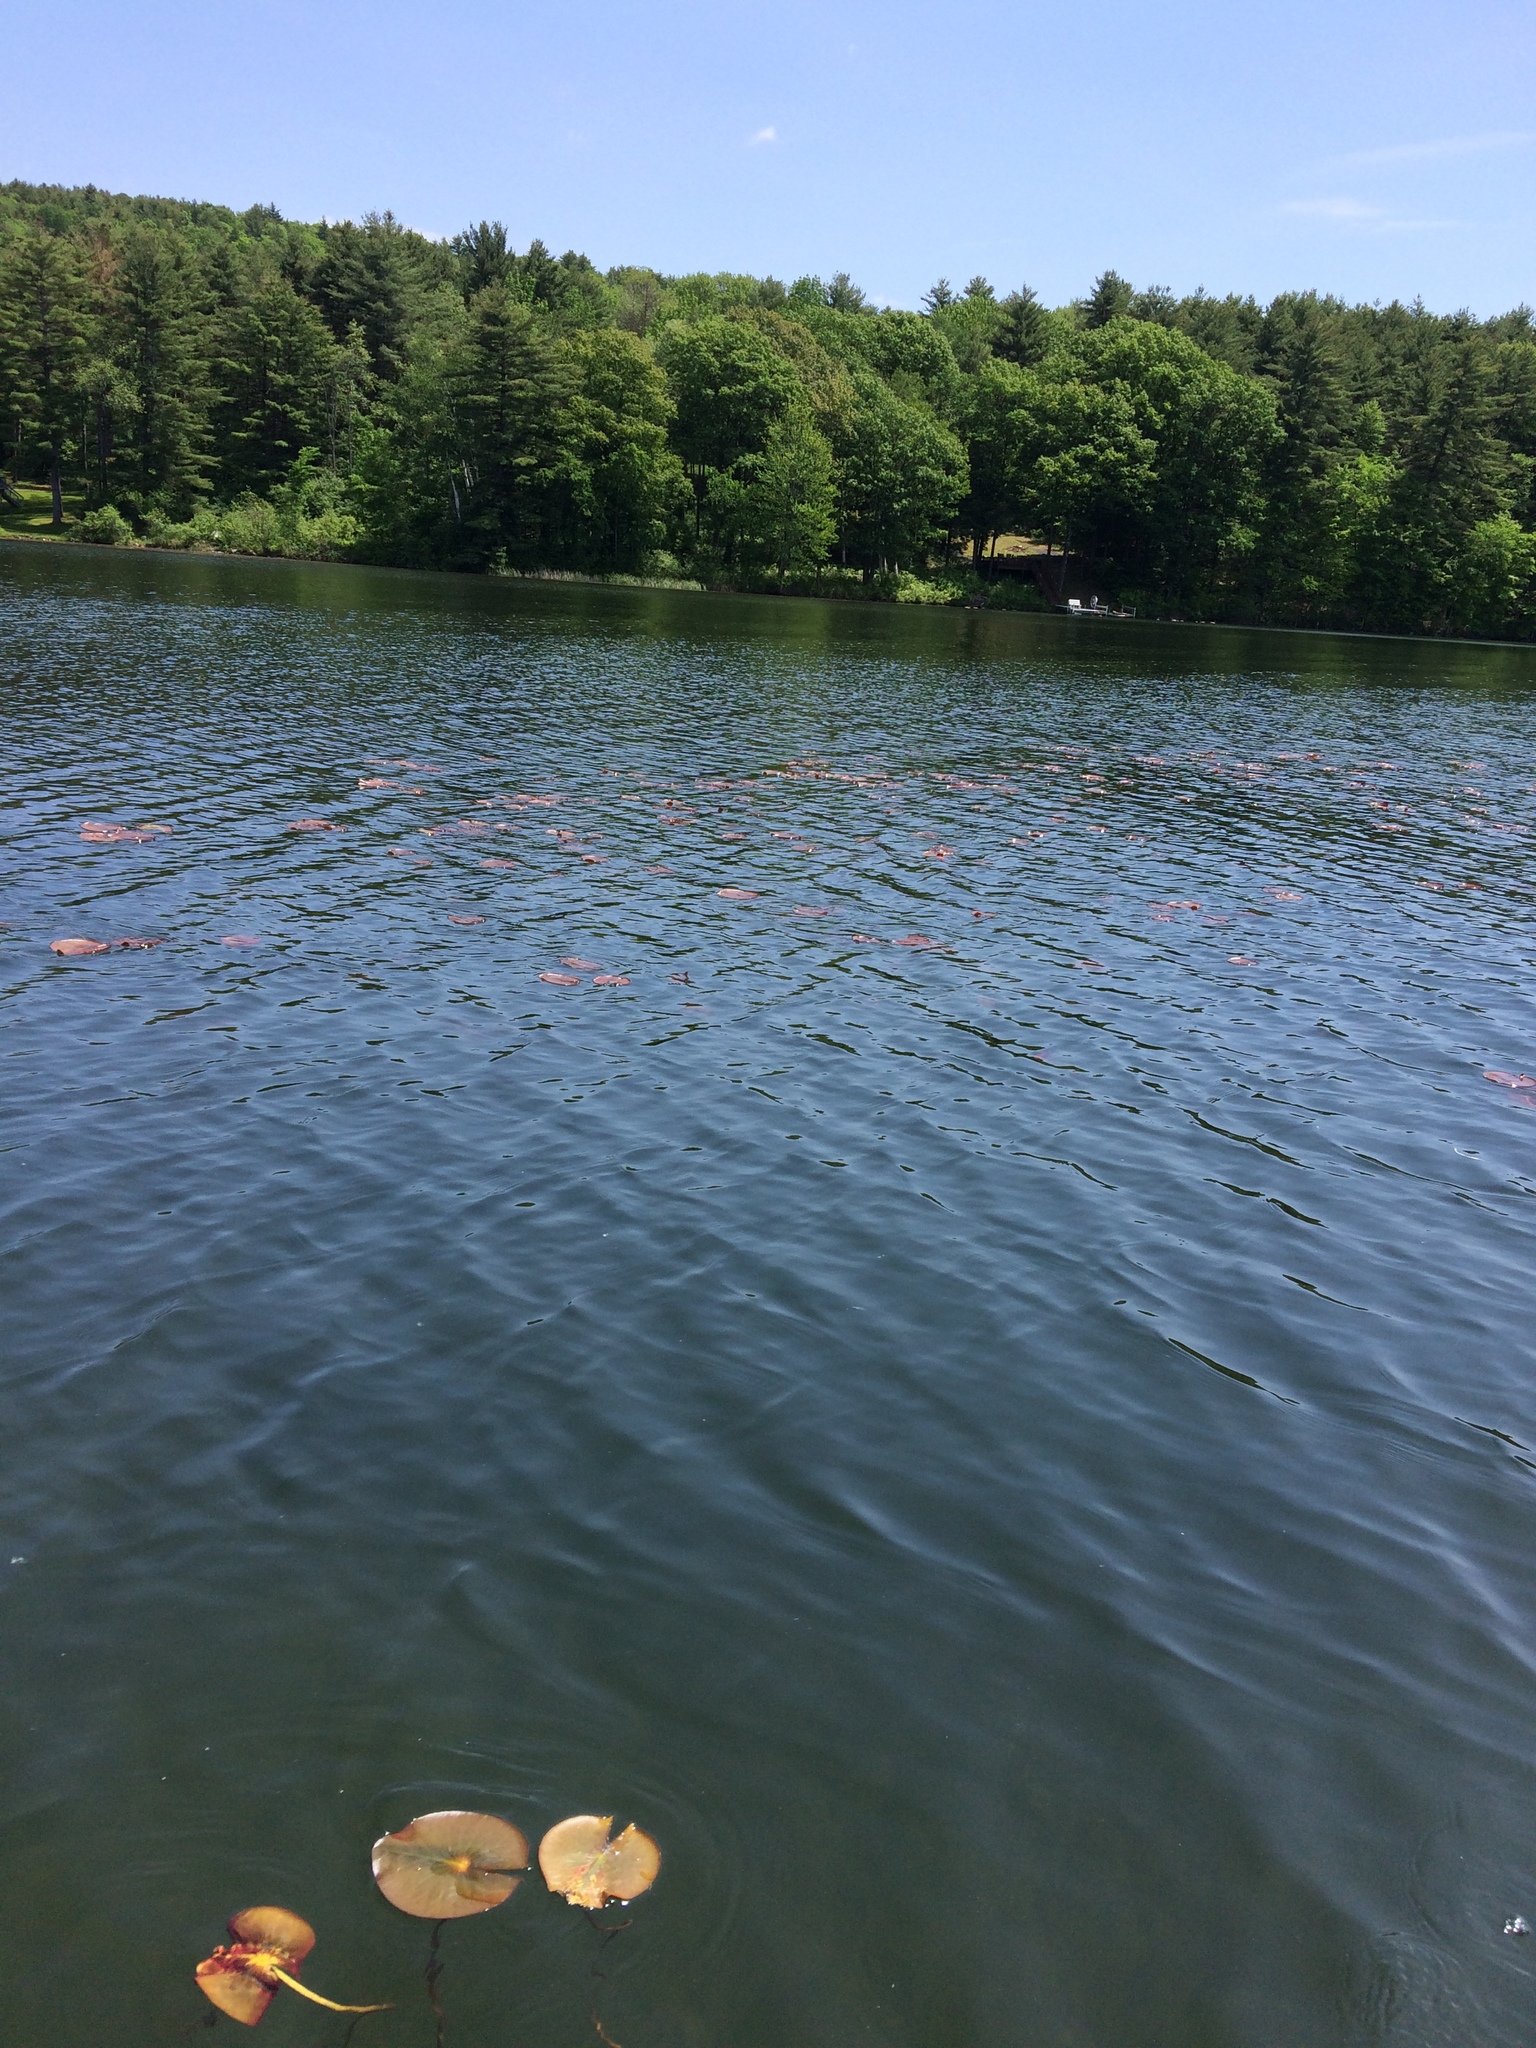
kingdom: Plantae
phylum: Tracheophyta
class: Magnoliopsida
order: Nymphaeales
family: Nymphaeaceae
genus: Nymphaea
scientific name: Nymphaea odorata
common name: Fragrant water-lily
